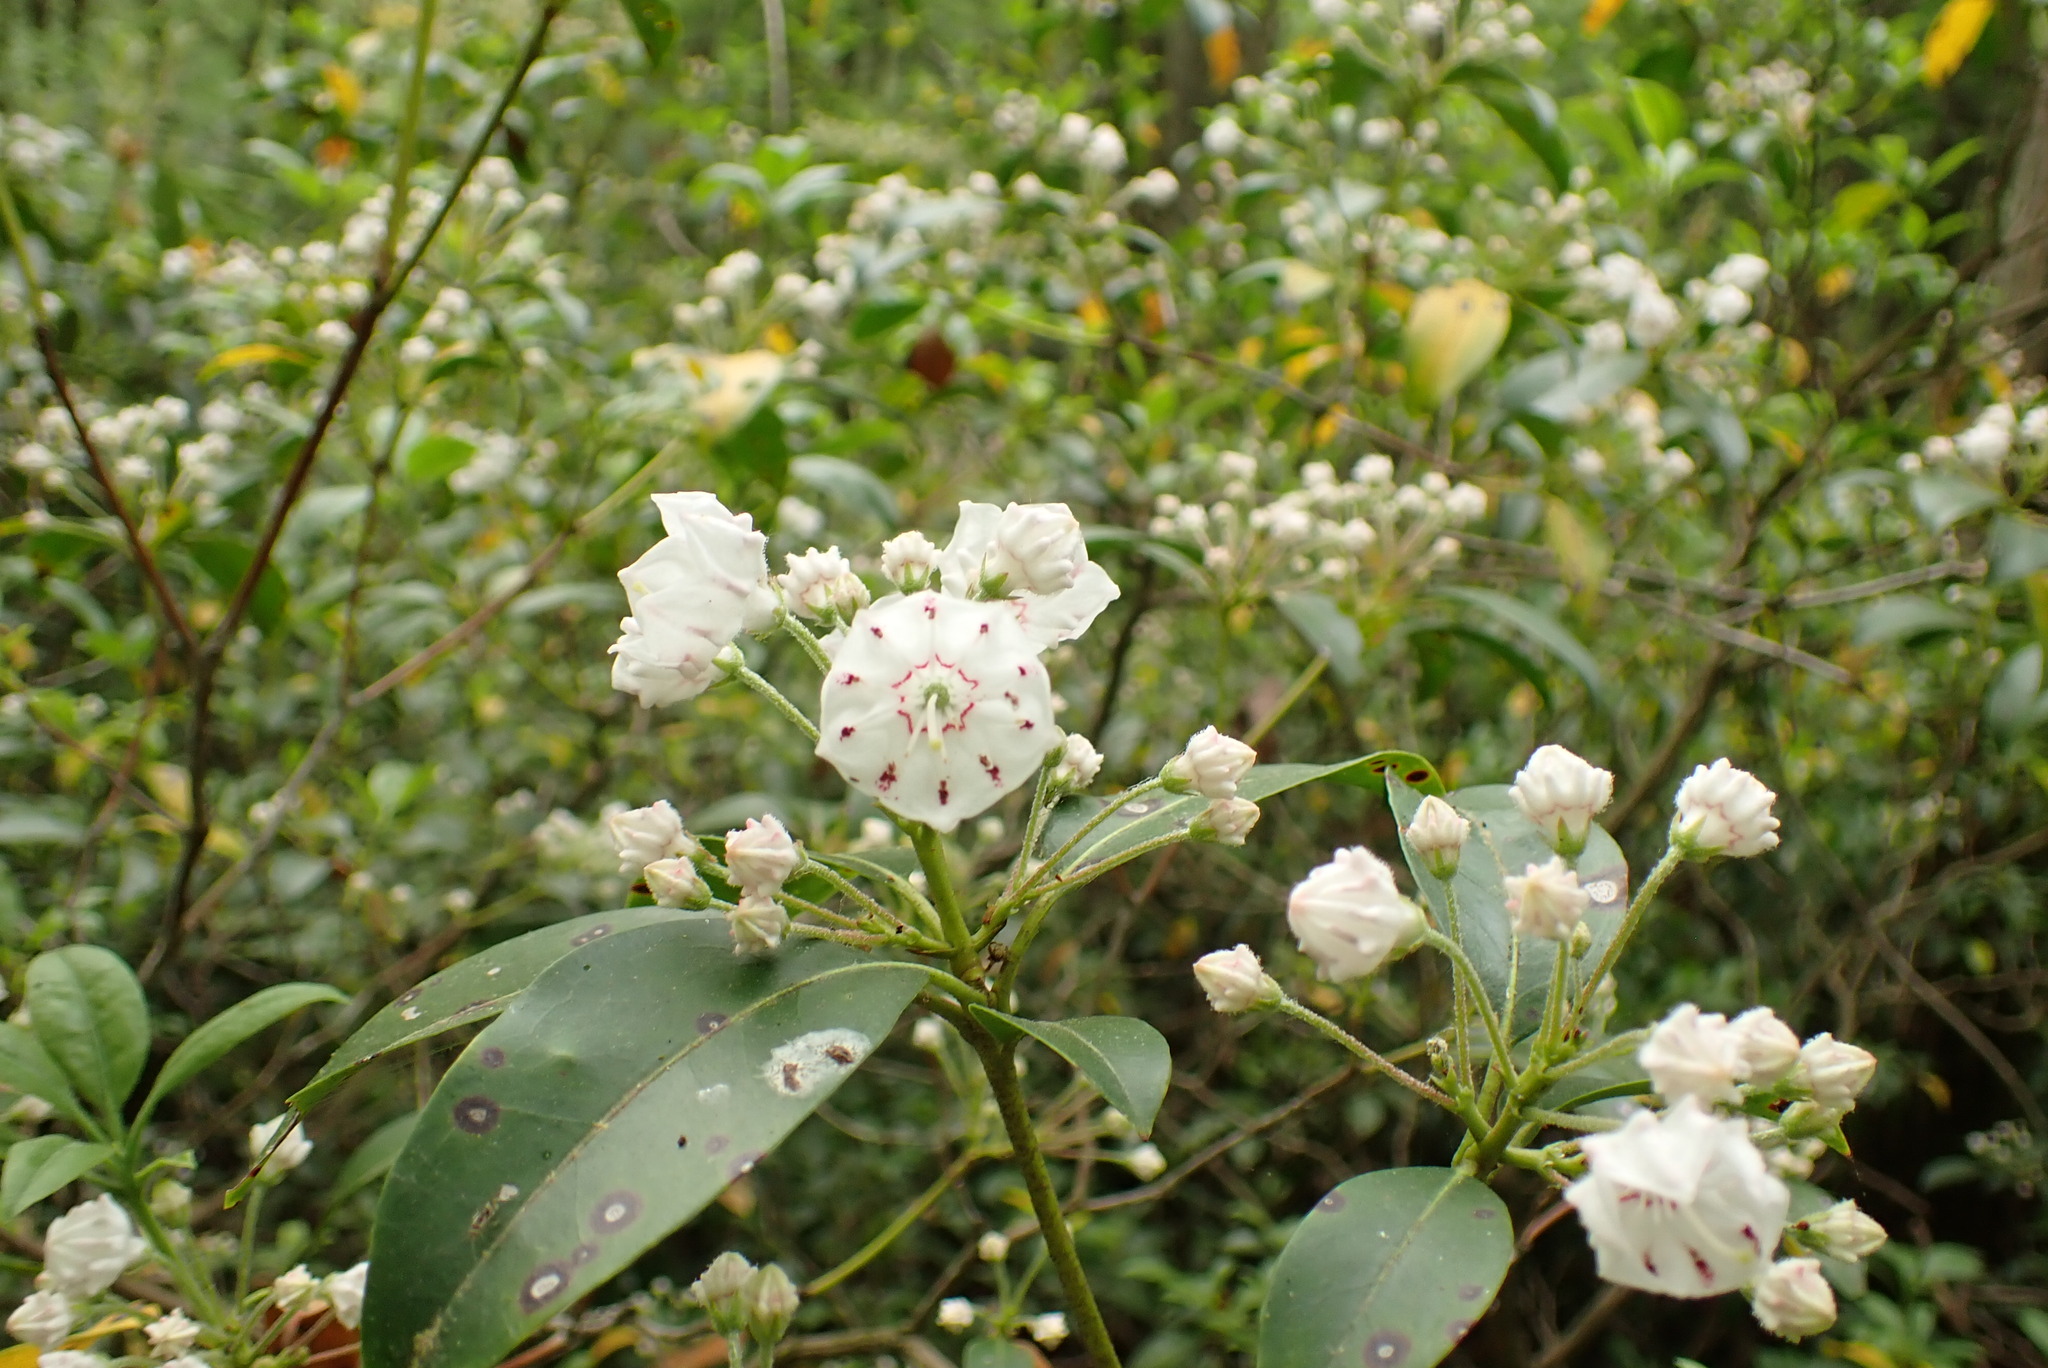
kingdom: Plantae
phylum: Tracheophyta
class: Magnoliopsida
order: Ericales
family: Ericaceae
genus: Kalmia
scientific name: Kalmia latifolia
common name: Mountain-laurel
